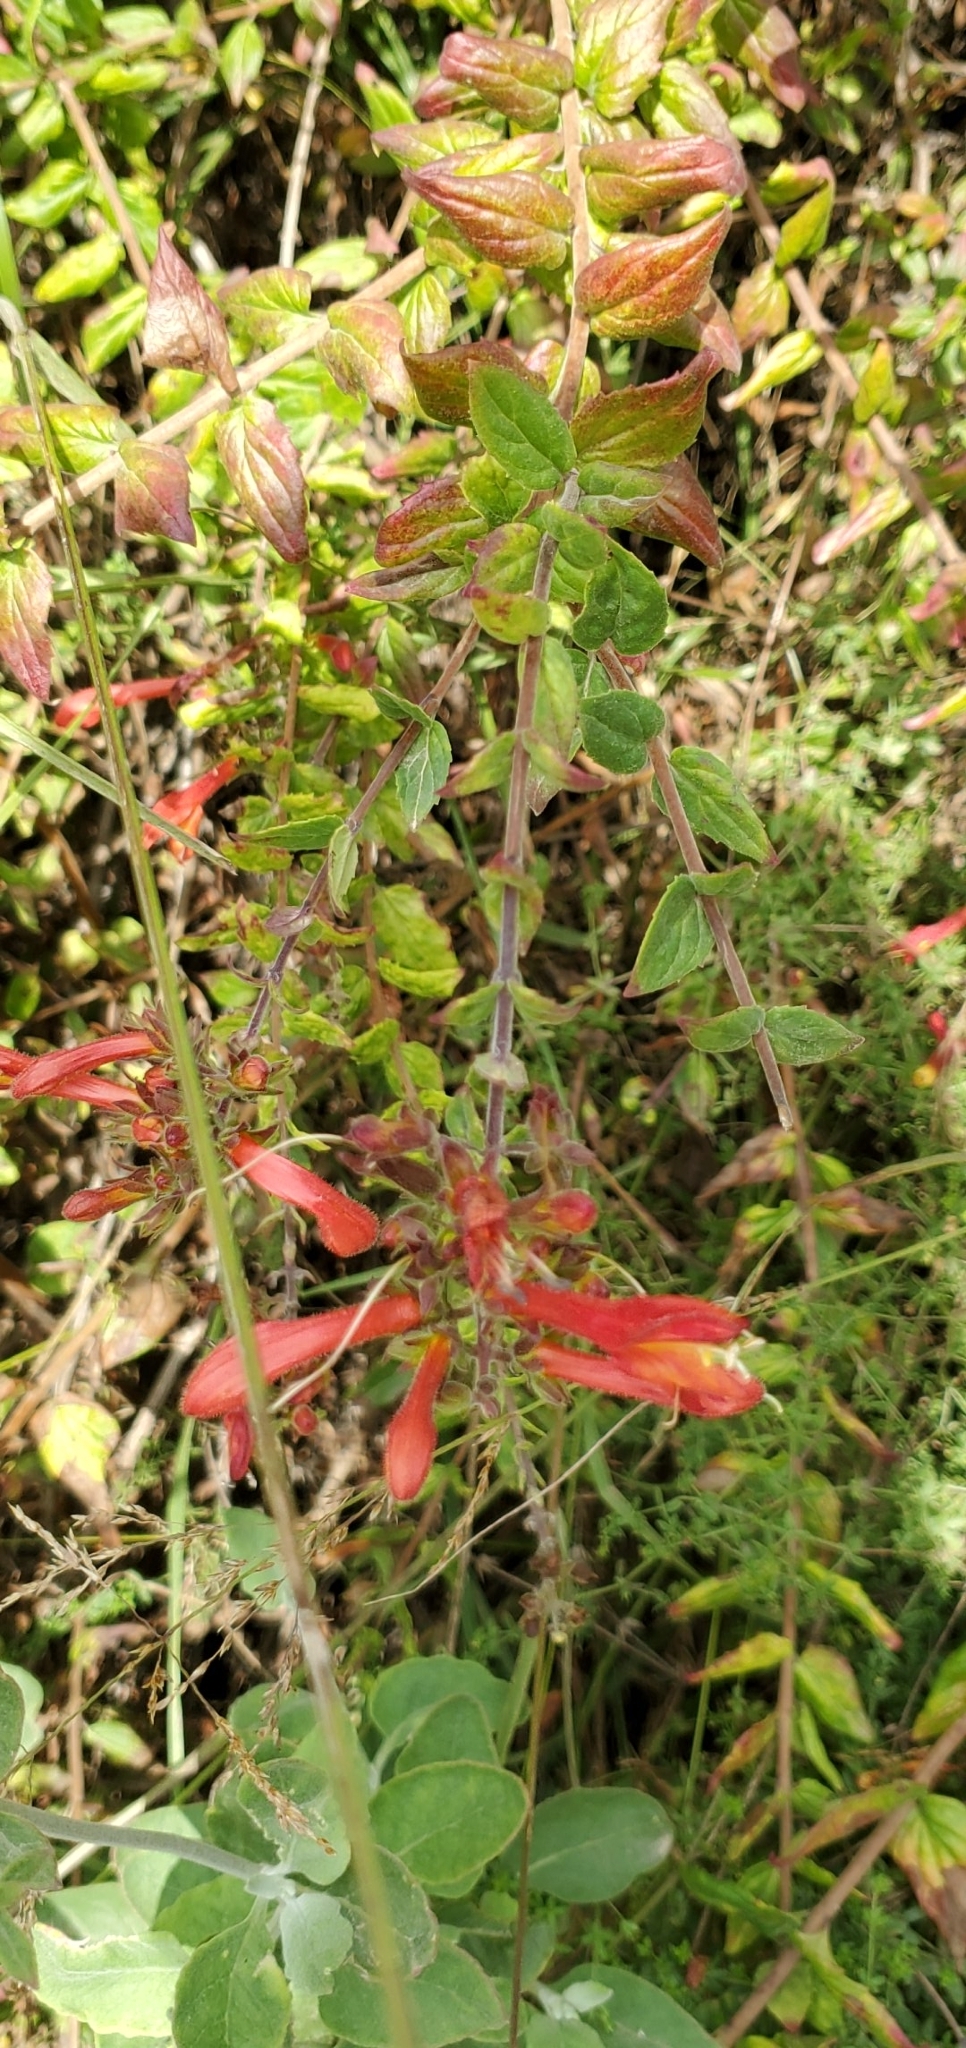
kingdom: Plantae
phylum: Tracheophyta
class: Magnoliopsida
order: Lamiales
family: Plantaginaceae
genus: Keckiella
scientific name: Keckiella cordifolia
